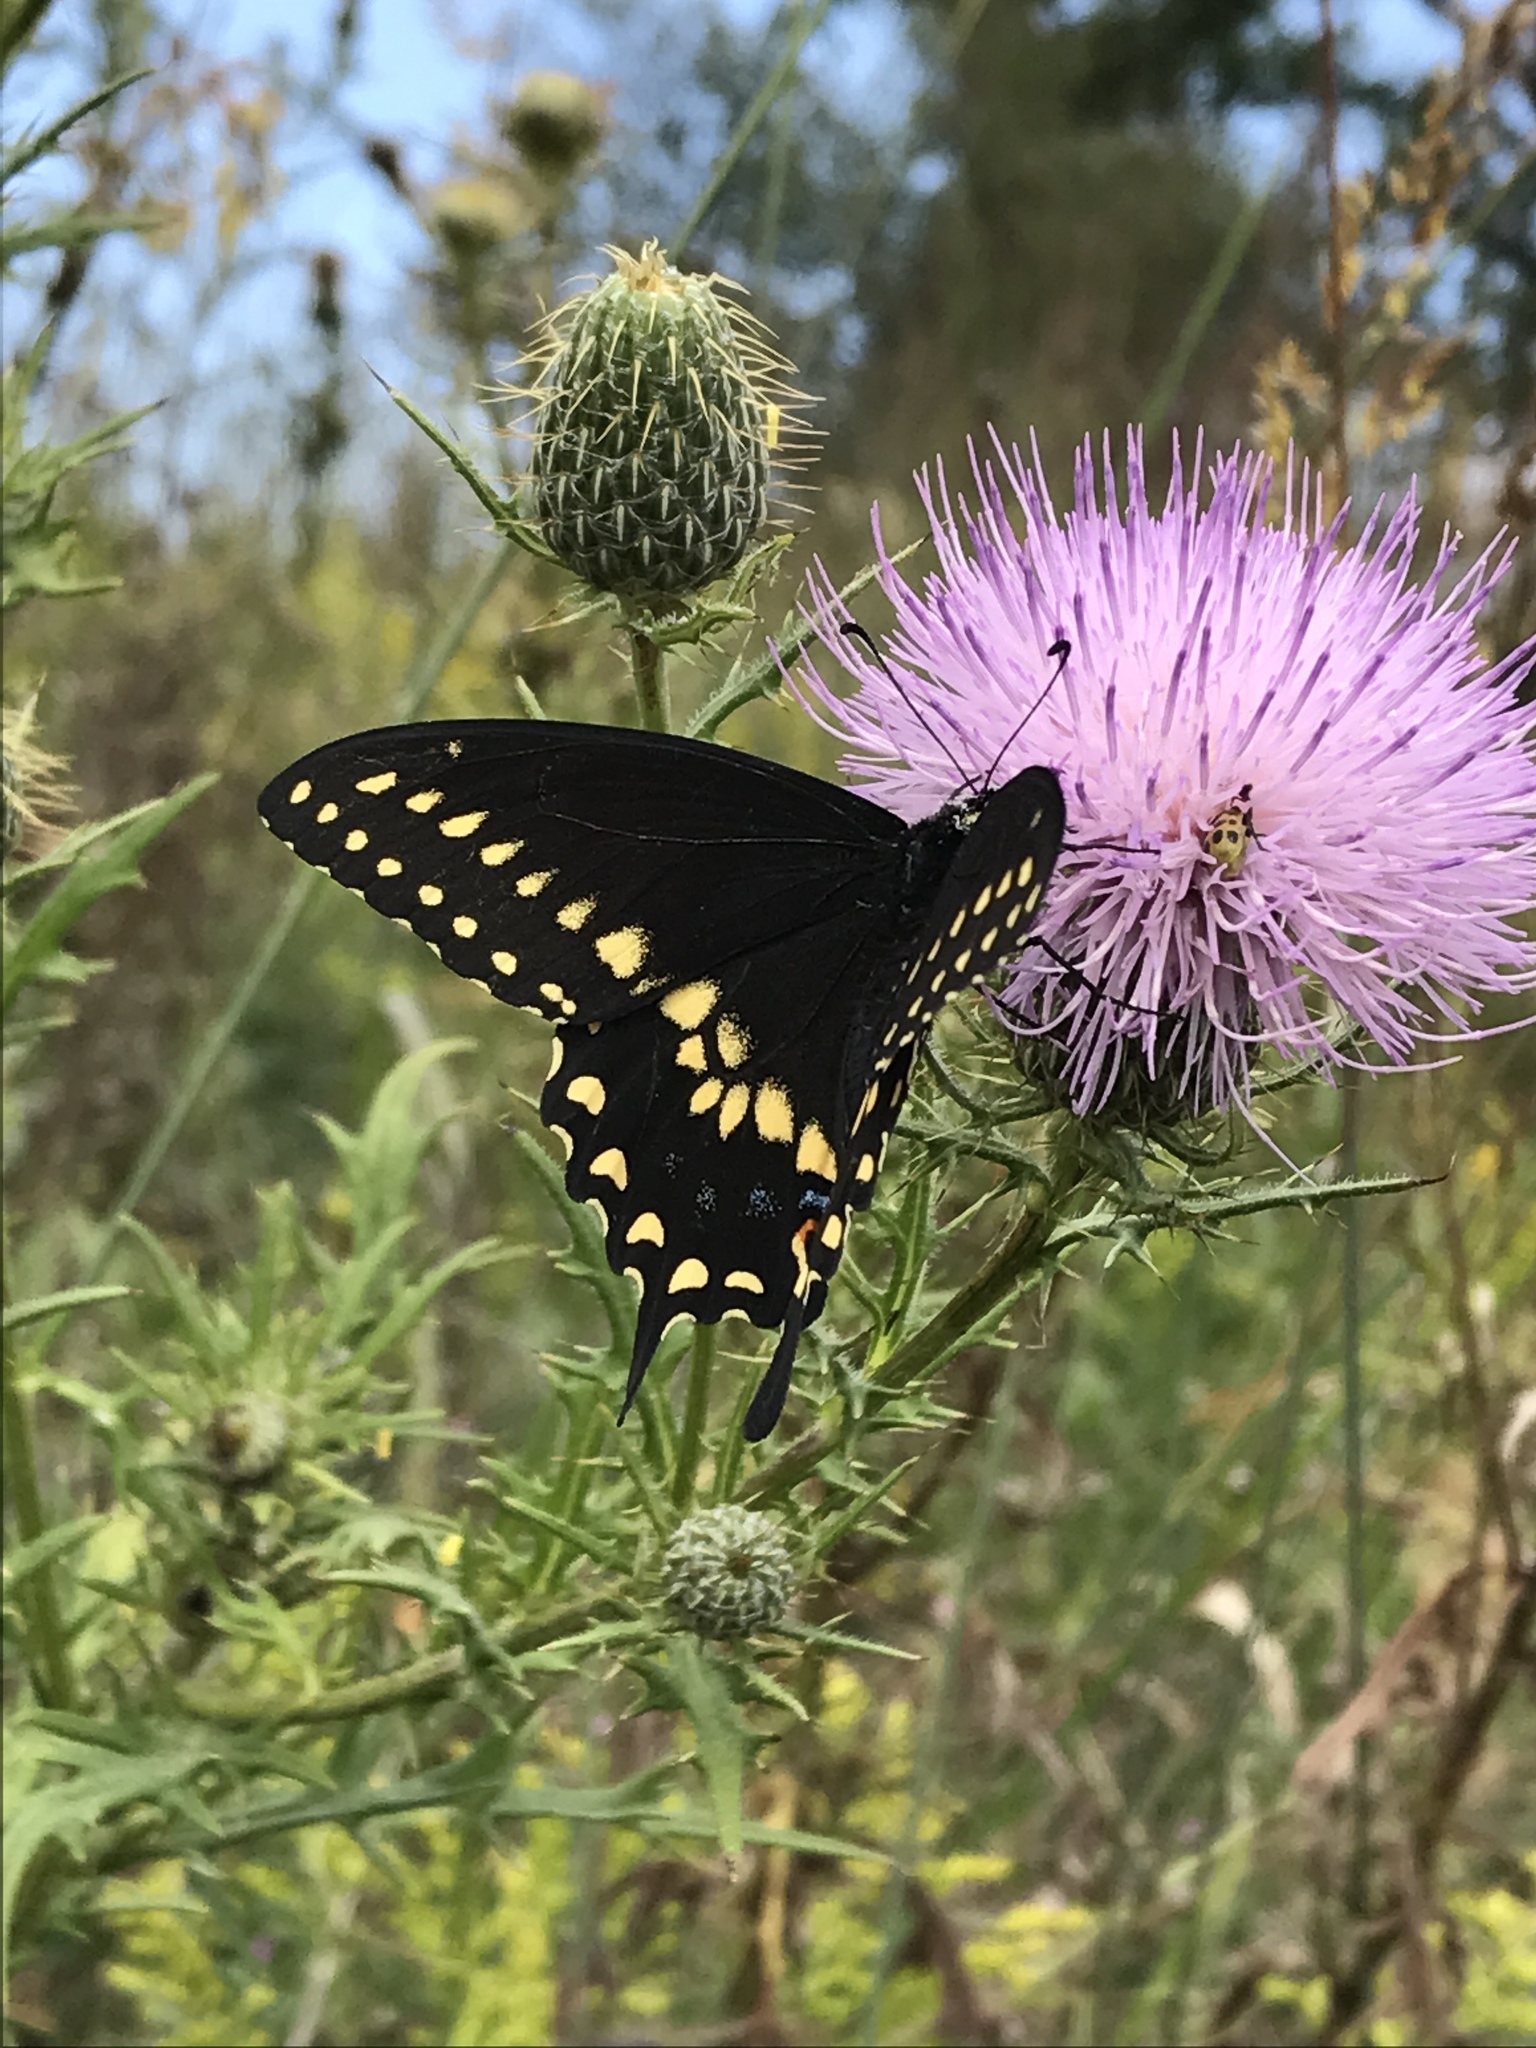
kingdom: Animalia
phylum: Arthropoda
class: Insecta
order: Lepidoptera
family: Papilionidae
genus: Papilio
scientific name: Papilio polyxenes
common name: Black swallowtail
